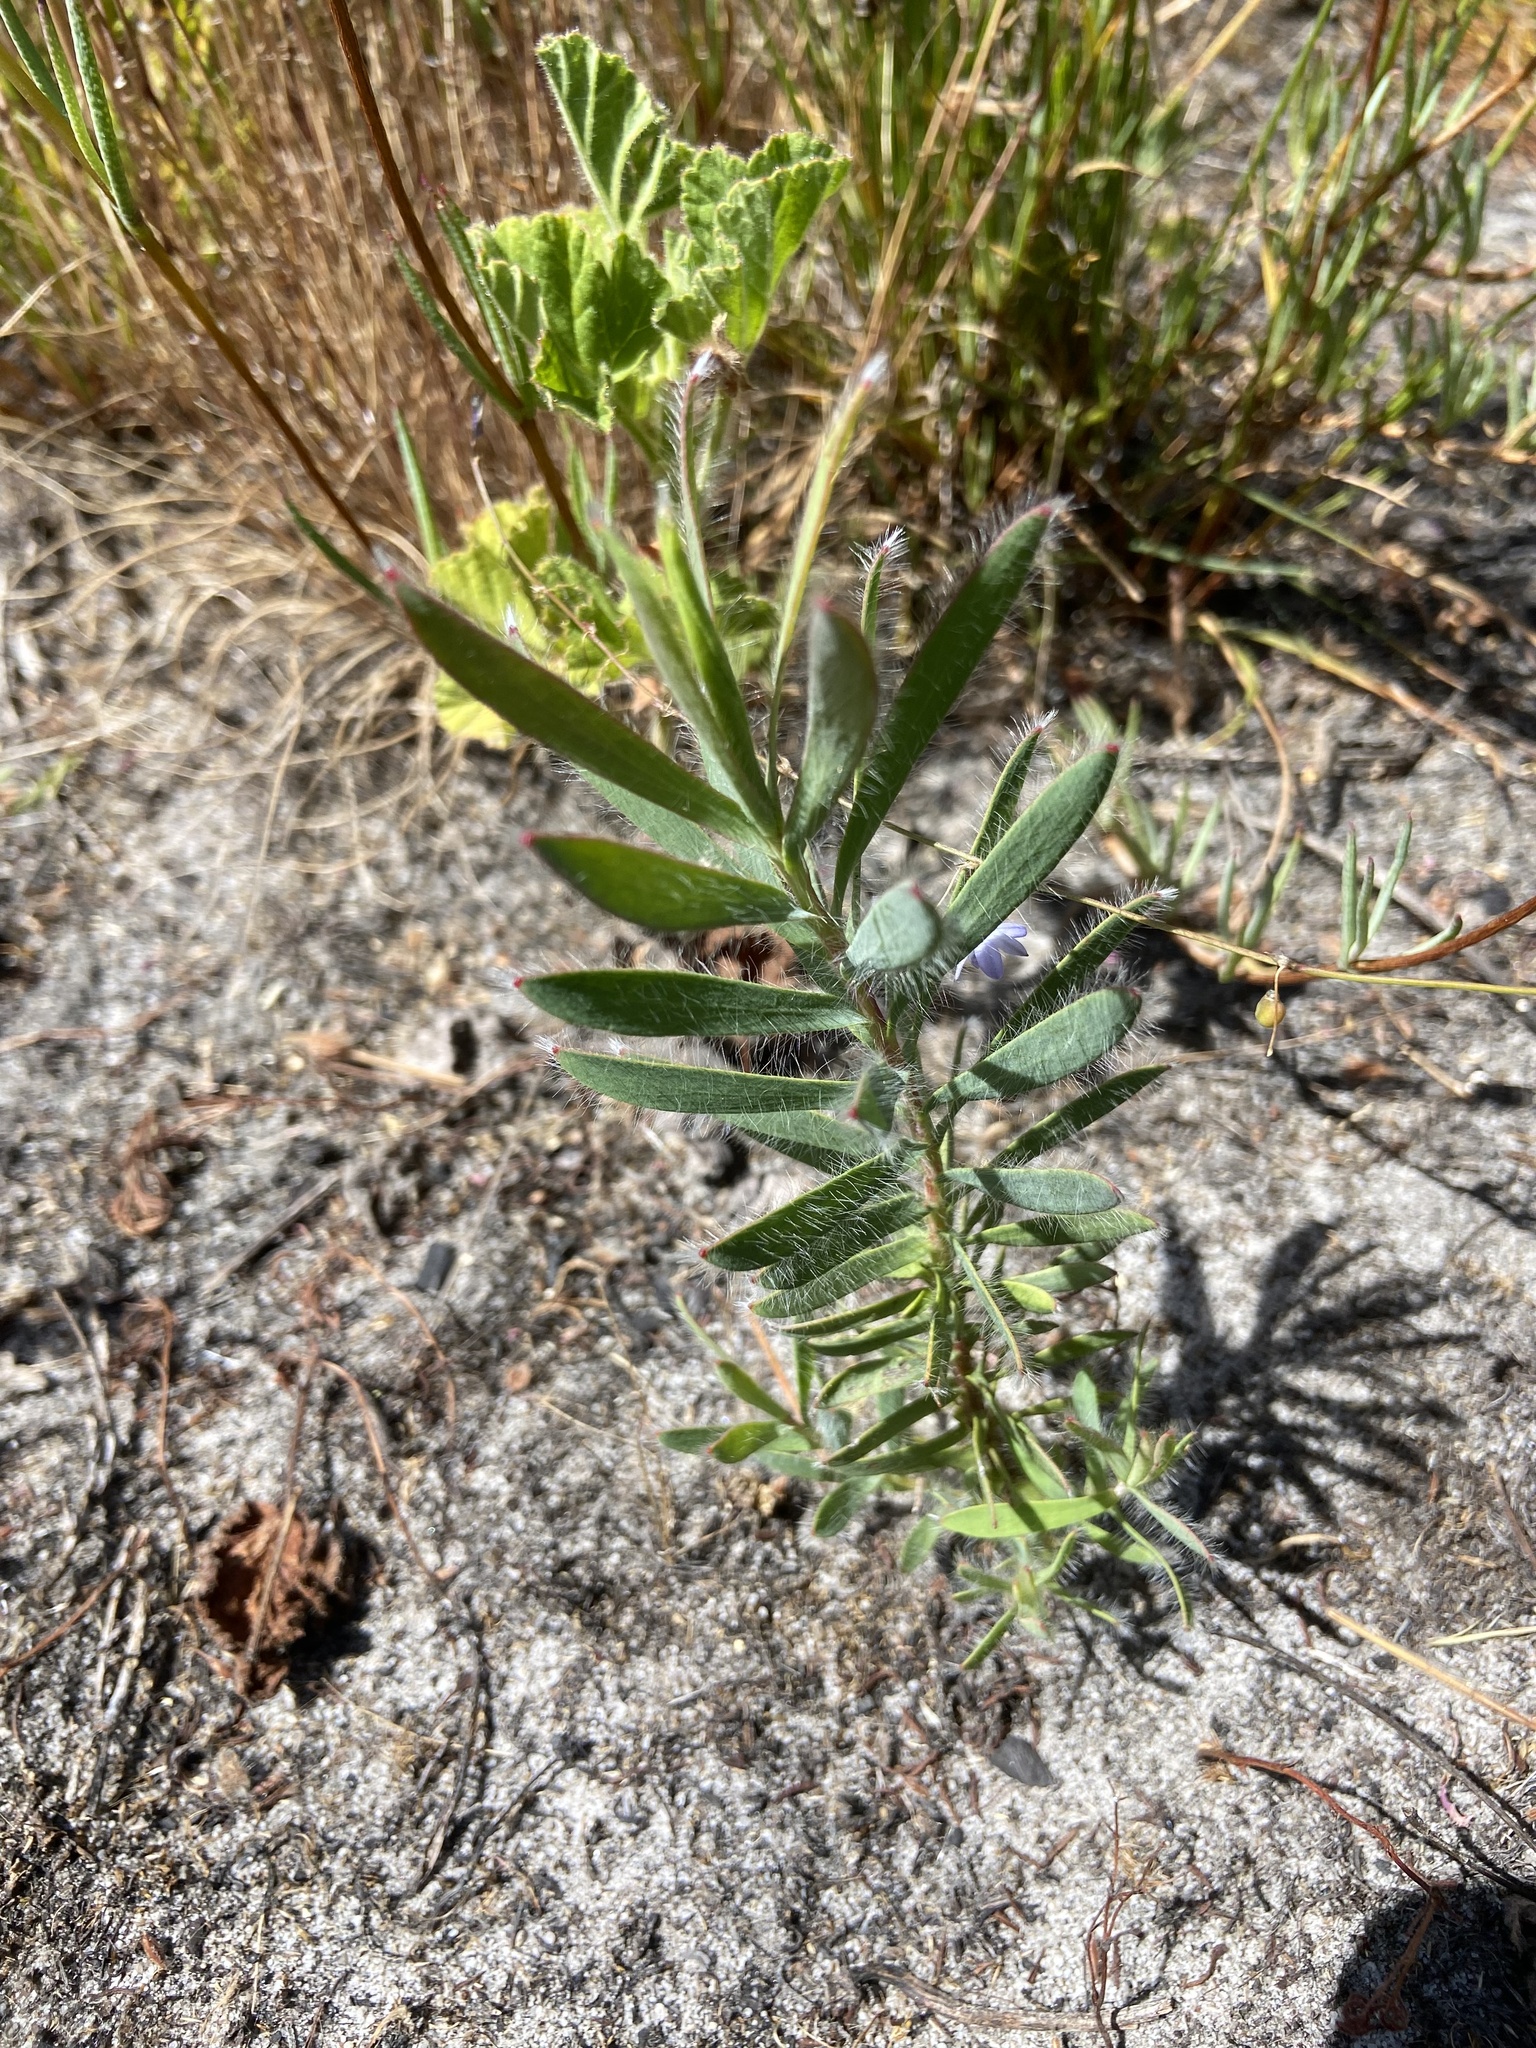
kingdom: Plantae
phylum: Tracheophyta
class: Magnoliopsida
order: Proteales
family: Proteaceae
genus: Leucadendron
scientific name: Leucadendron salignum
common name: Common sunshine conebush
